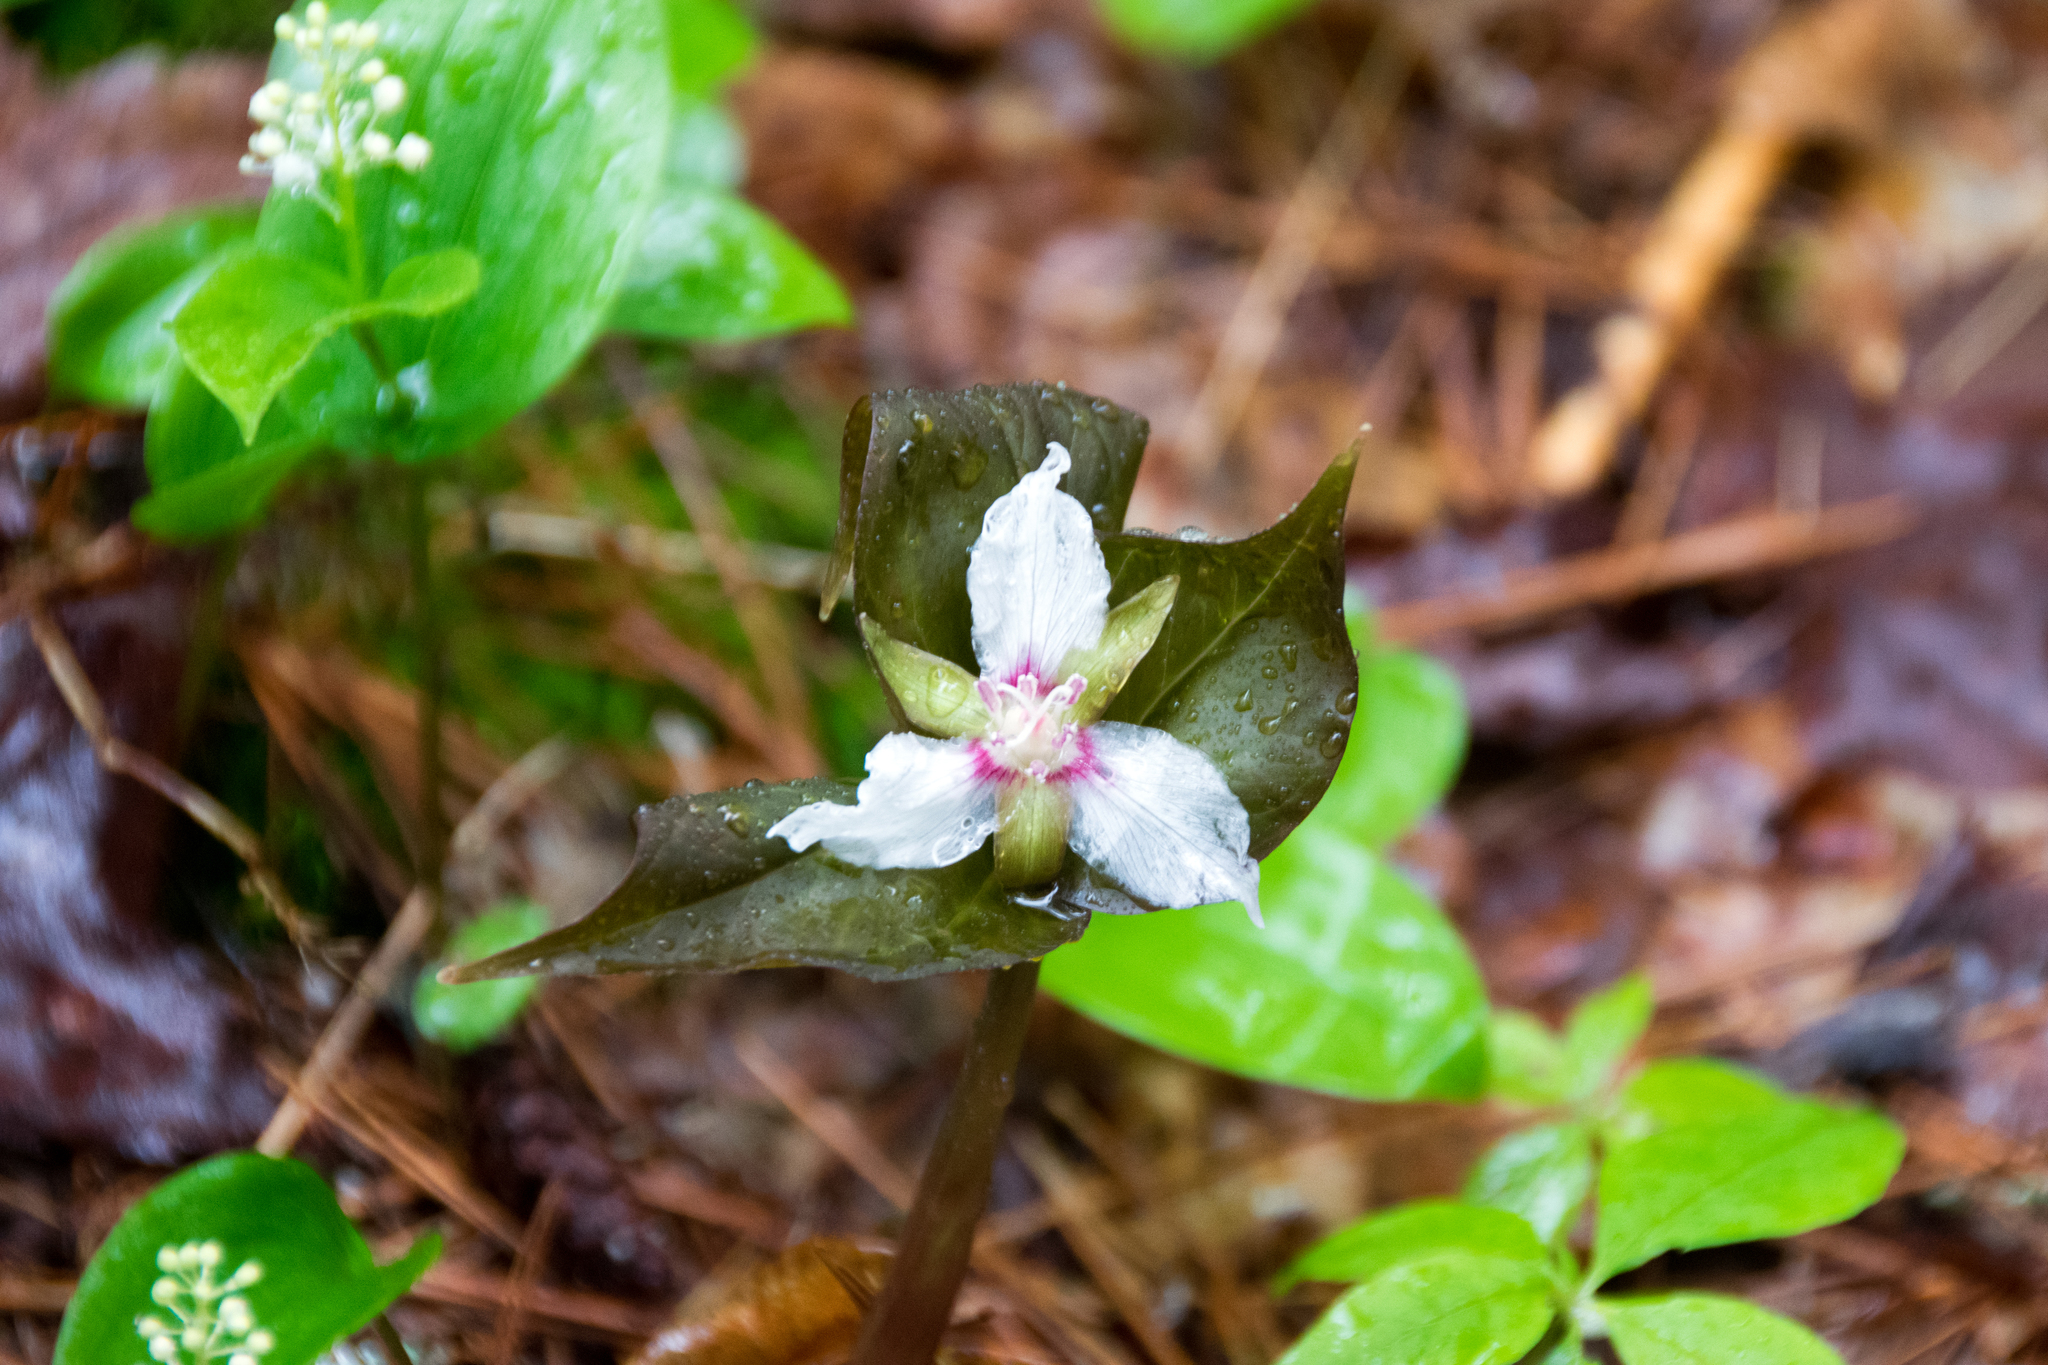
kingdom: Plantae
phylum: Tracheophyta
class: Liliopsida
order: Liliales
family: Melanthiaceae
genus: Trillium
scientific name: Trillium undulatum
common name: Paint trillium
